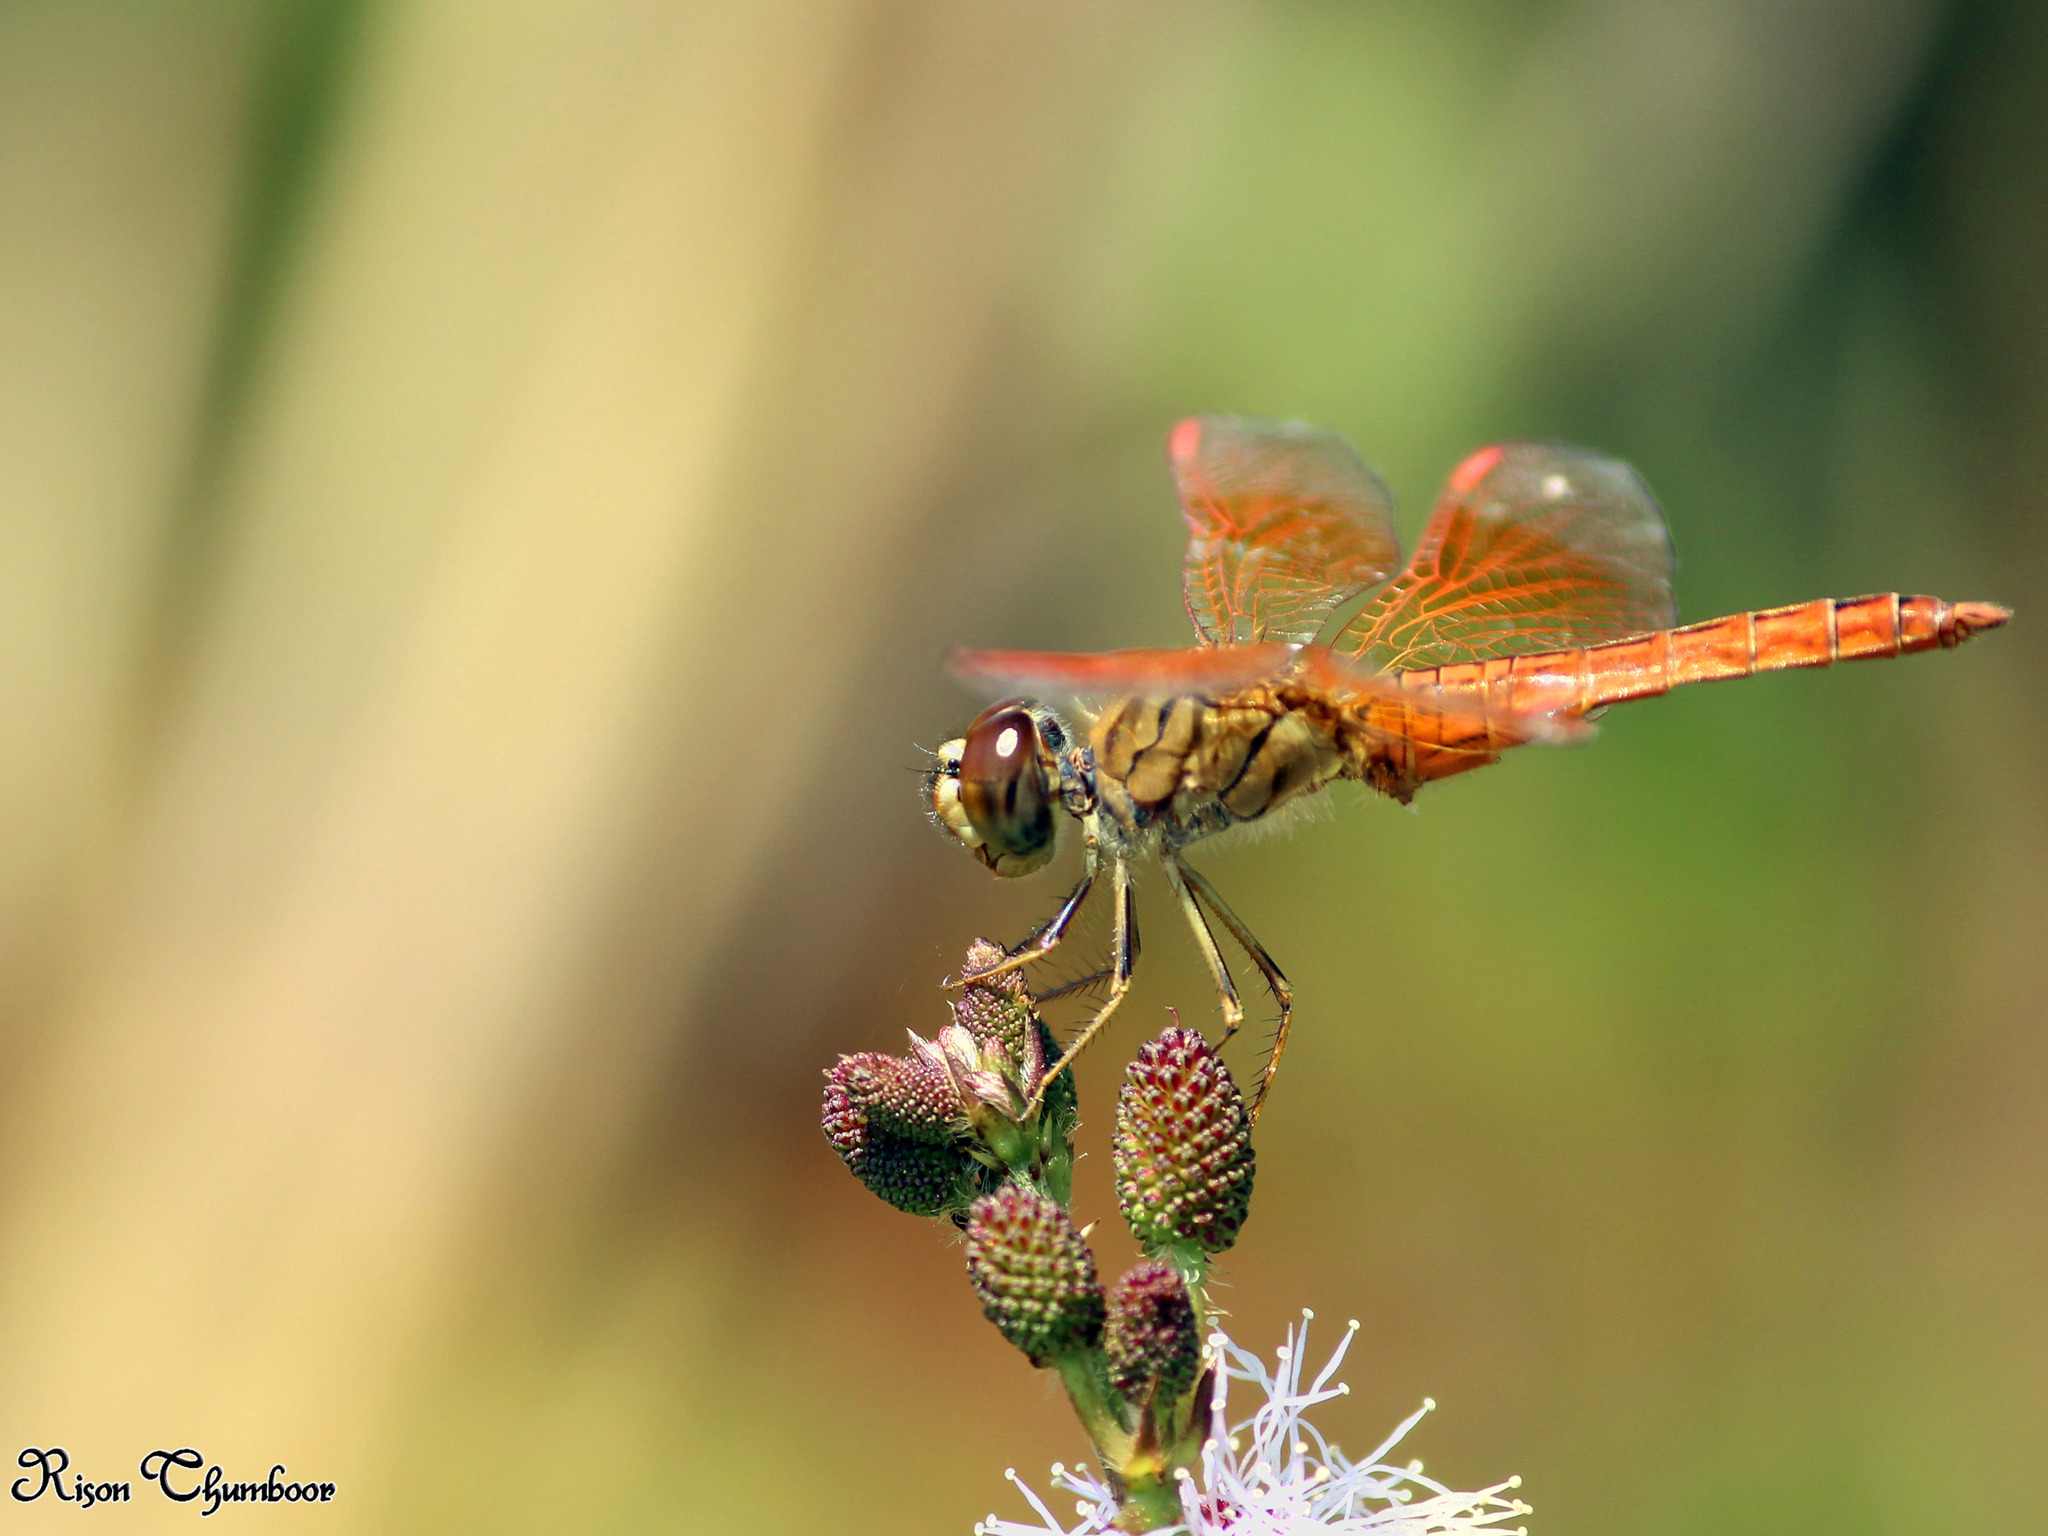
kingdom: Animalia
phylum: Arthropoda
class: Insecta
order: Odonata
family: Libellulidae
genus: Brachythemis
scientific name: Brachythemis contaminata
